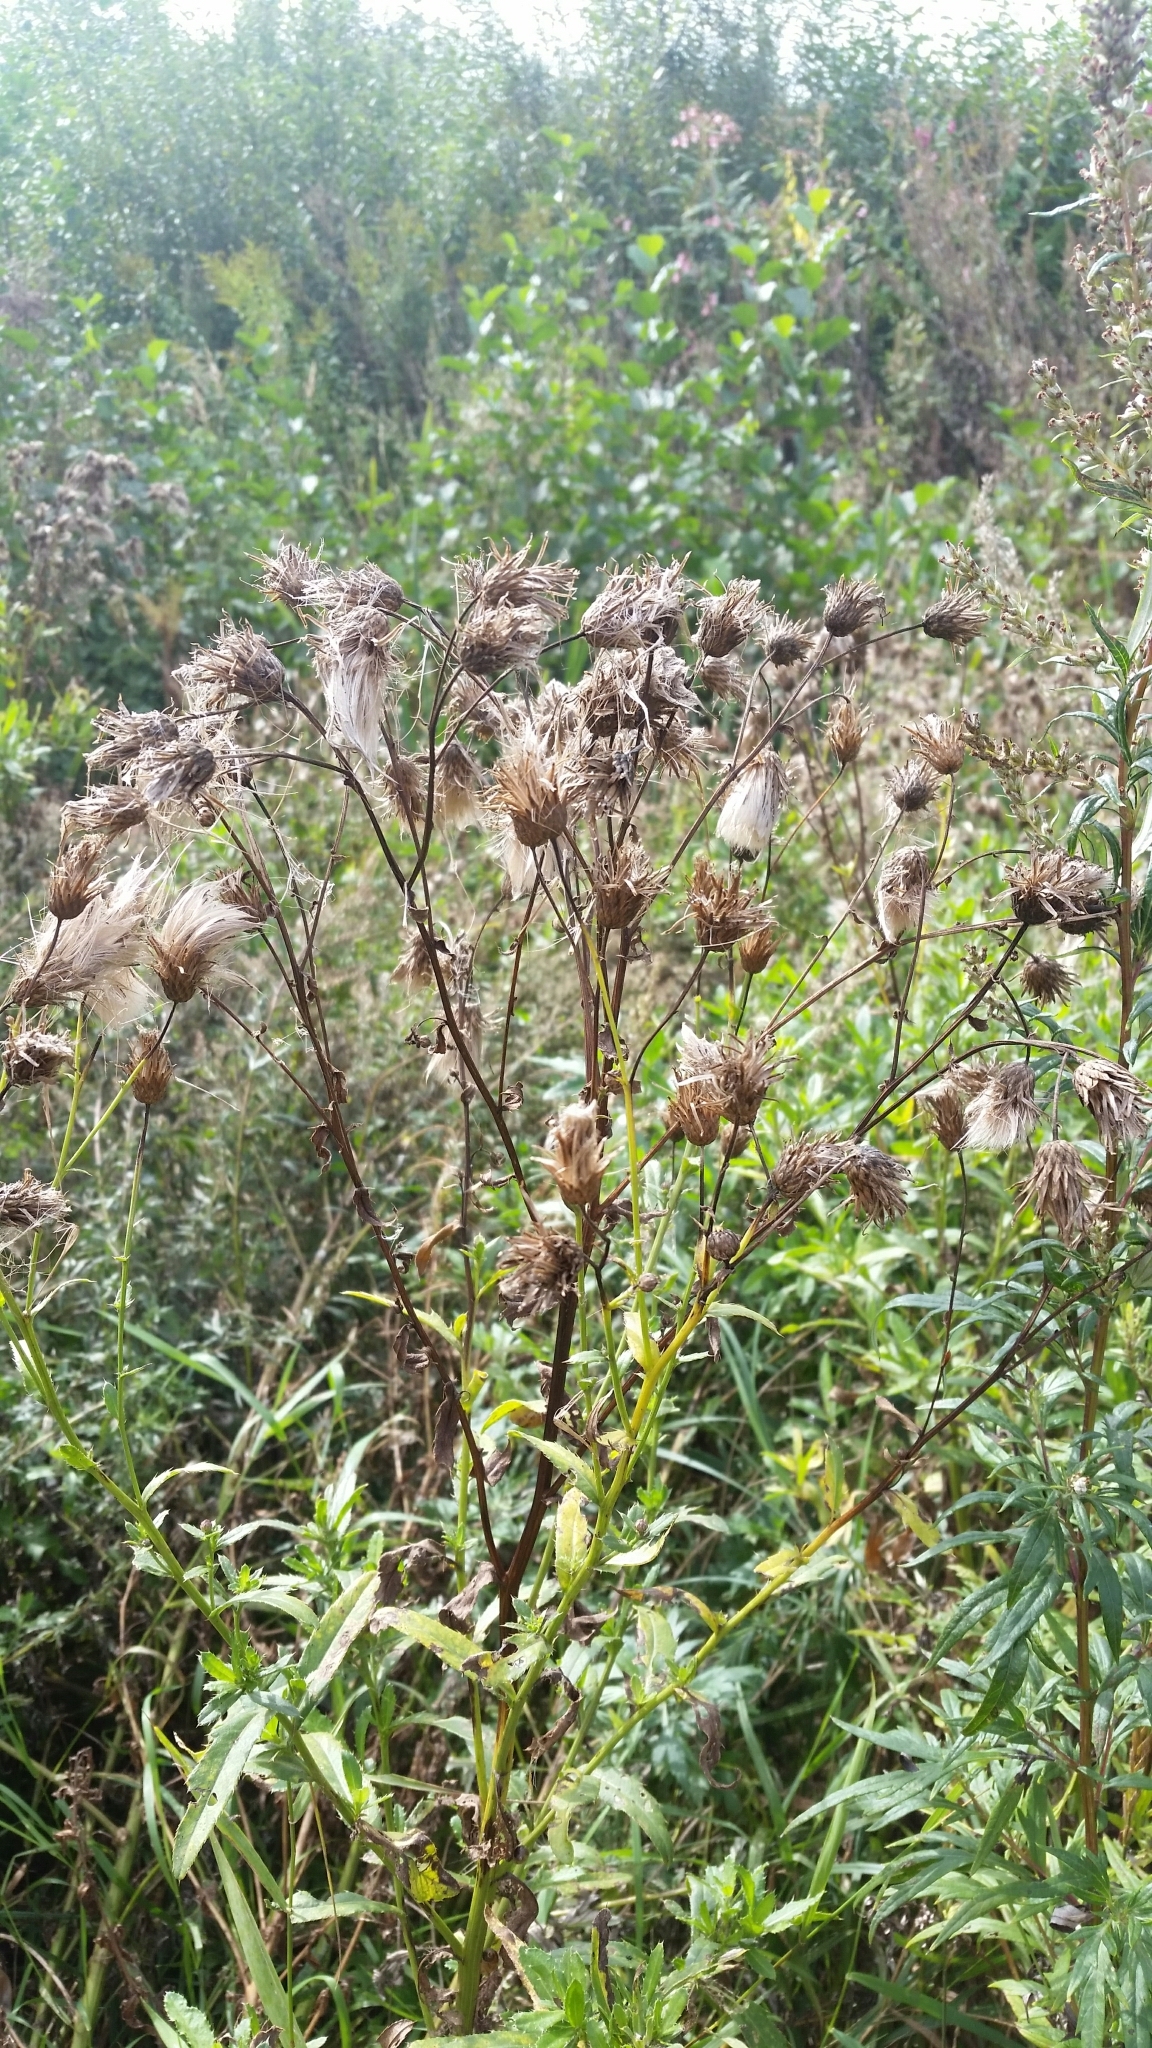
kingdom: Plantae
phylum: Tracheophyta
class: Magnoliopsida
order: Asterales
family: Asteraceae
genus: Cirsium
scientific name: Cirsium arvense
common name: Creeping thistle
